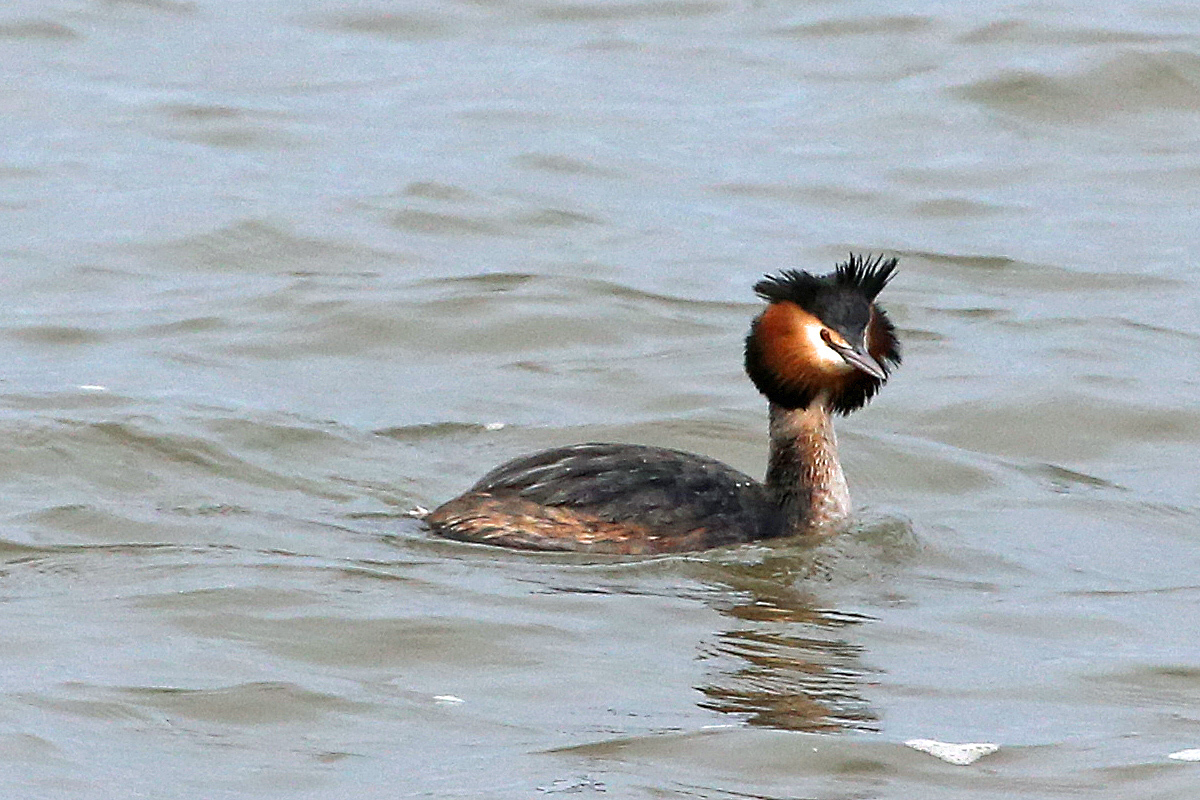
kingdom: Animalia
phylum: Chordata
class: Aves
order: Podicipediformes
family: Podicipedidae
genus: Podiceps
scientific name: Podiceps cristatus
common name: Great crested grebe
